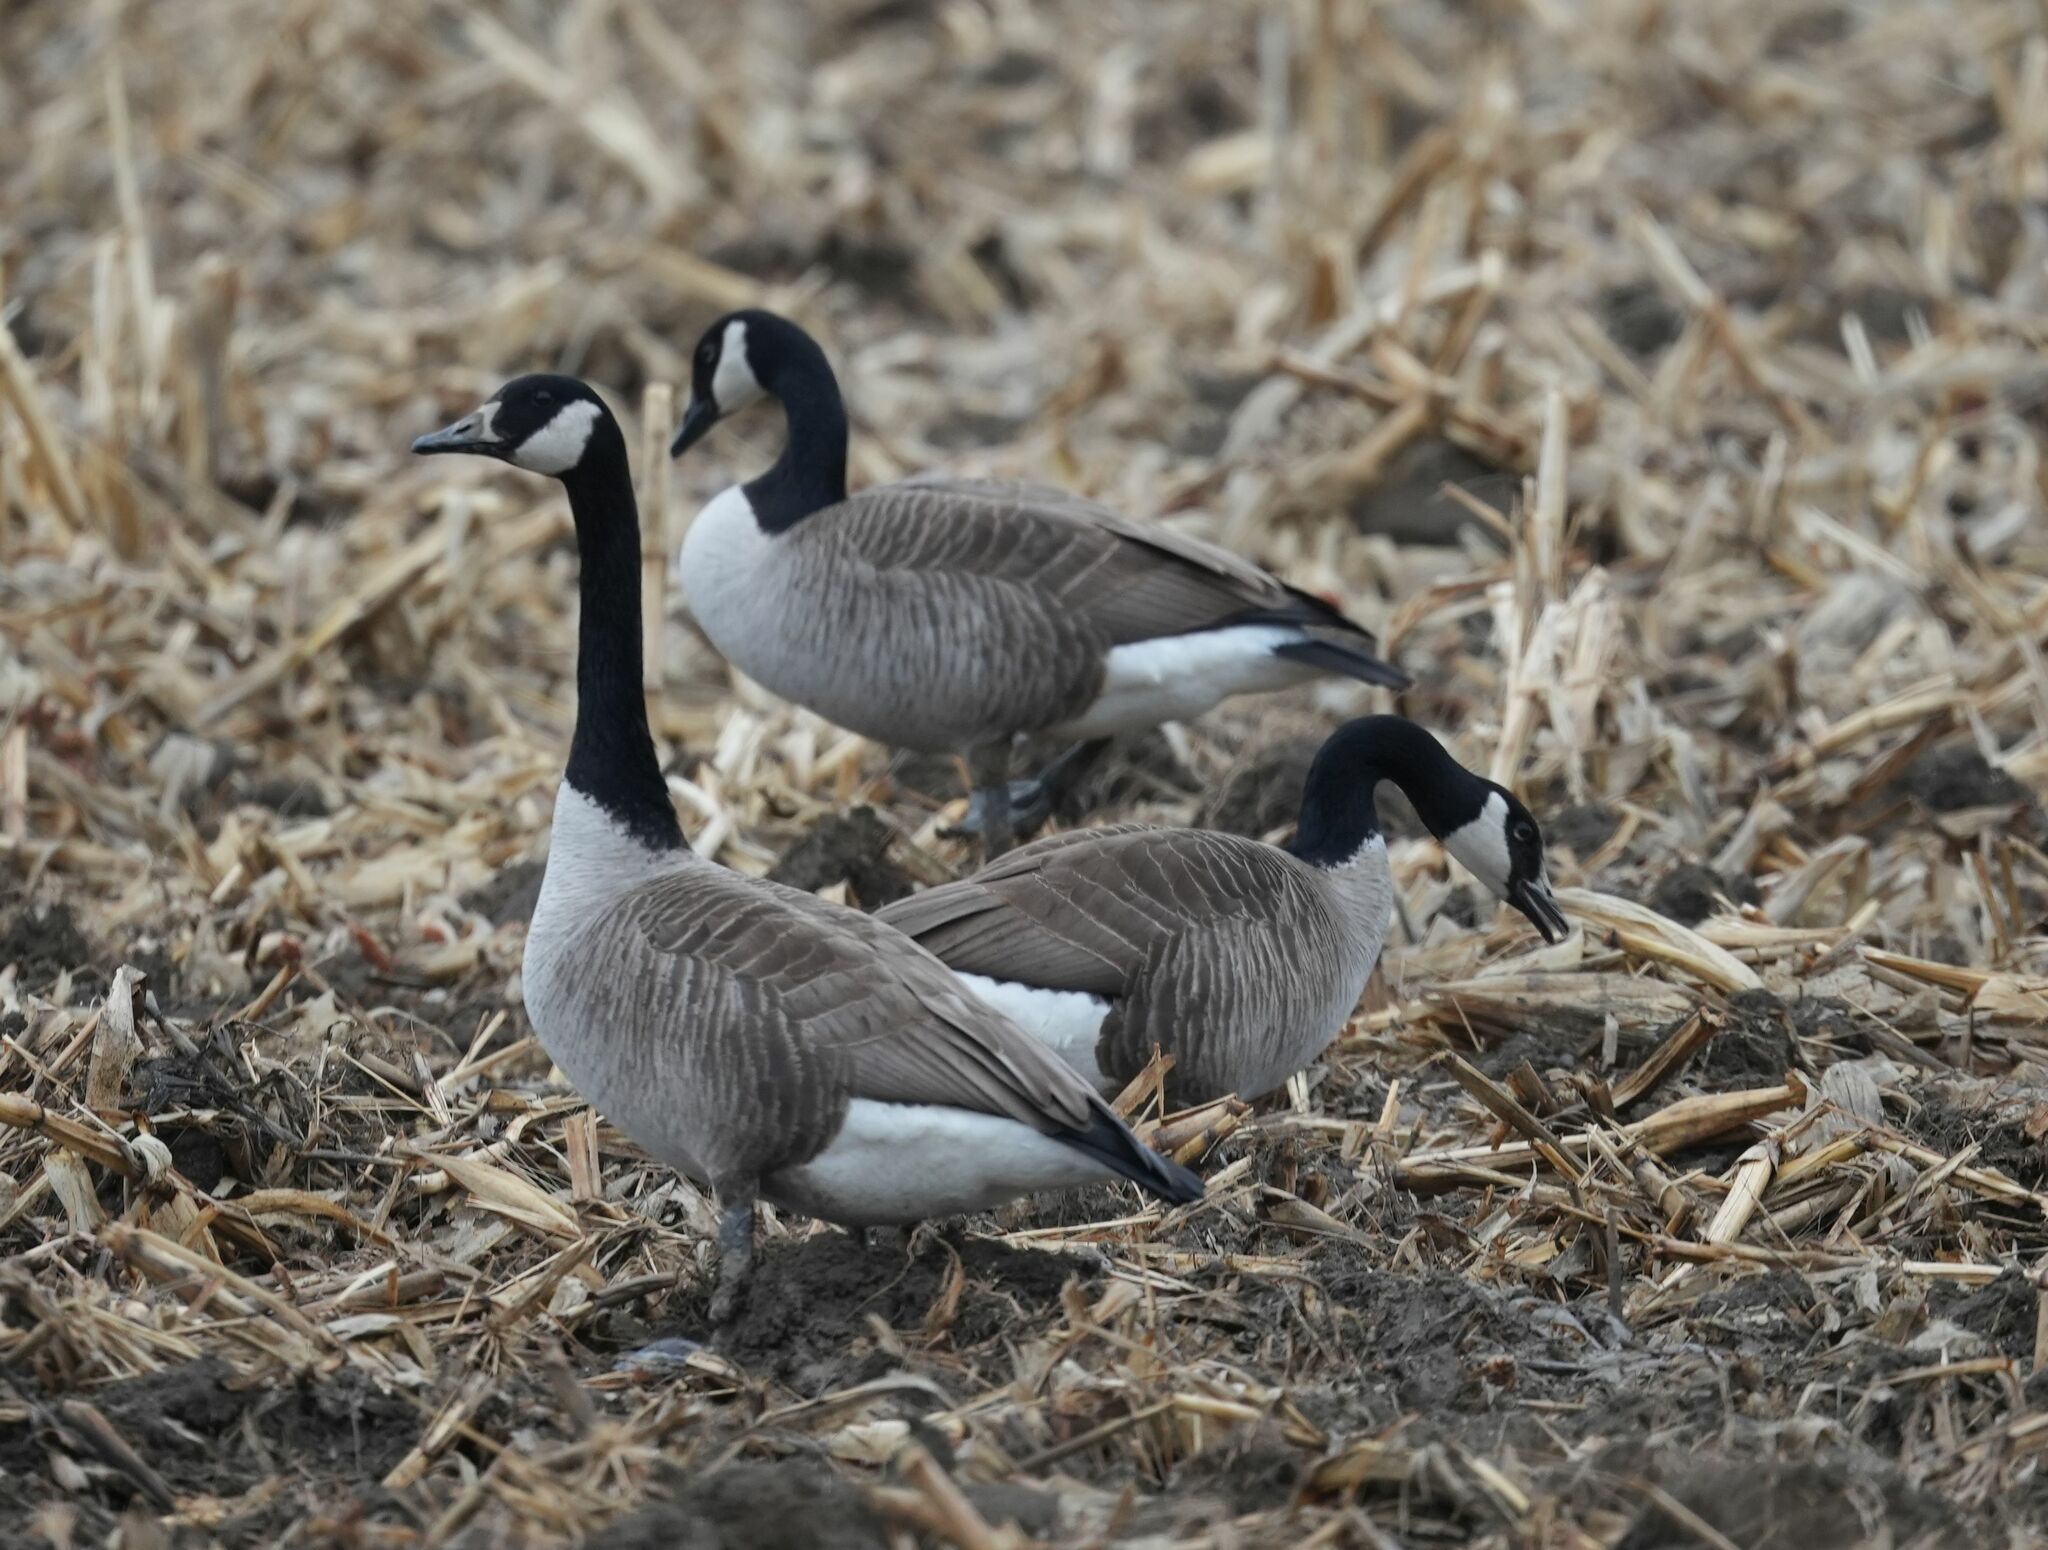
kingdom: Animalia
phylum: Chordata
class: Aves
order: Anseriformes
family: Anatidae
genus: Branta
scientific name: Branta canadensis
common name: Canada goose
